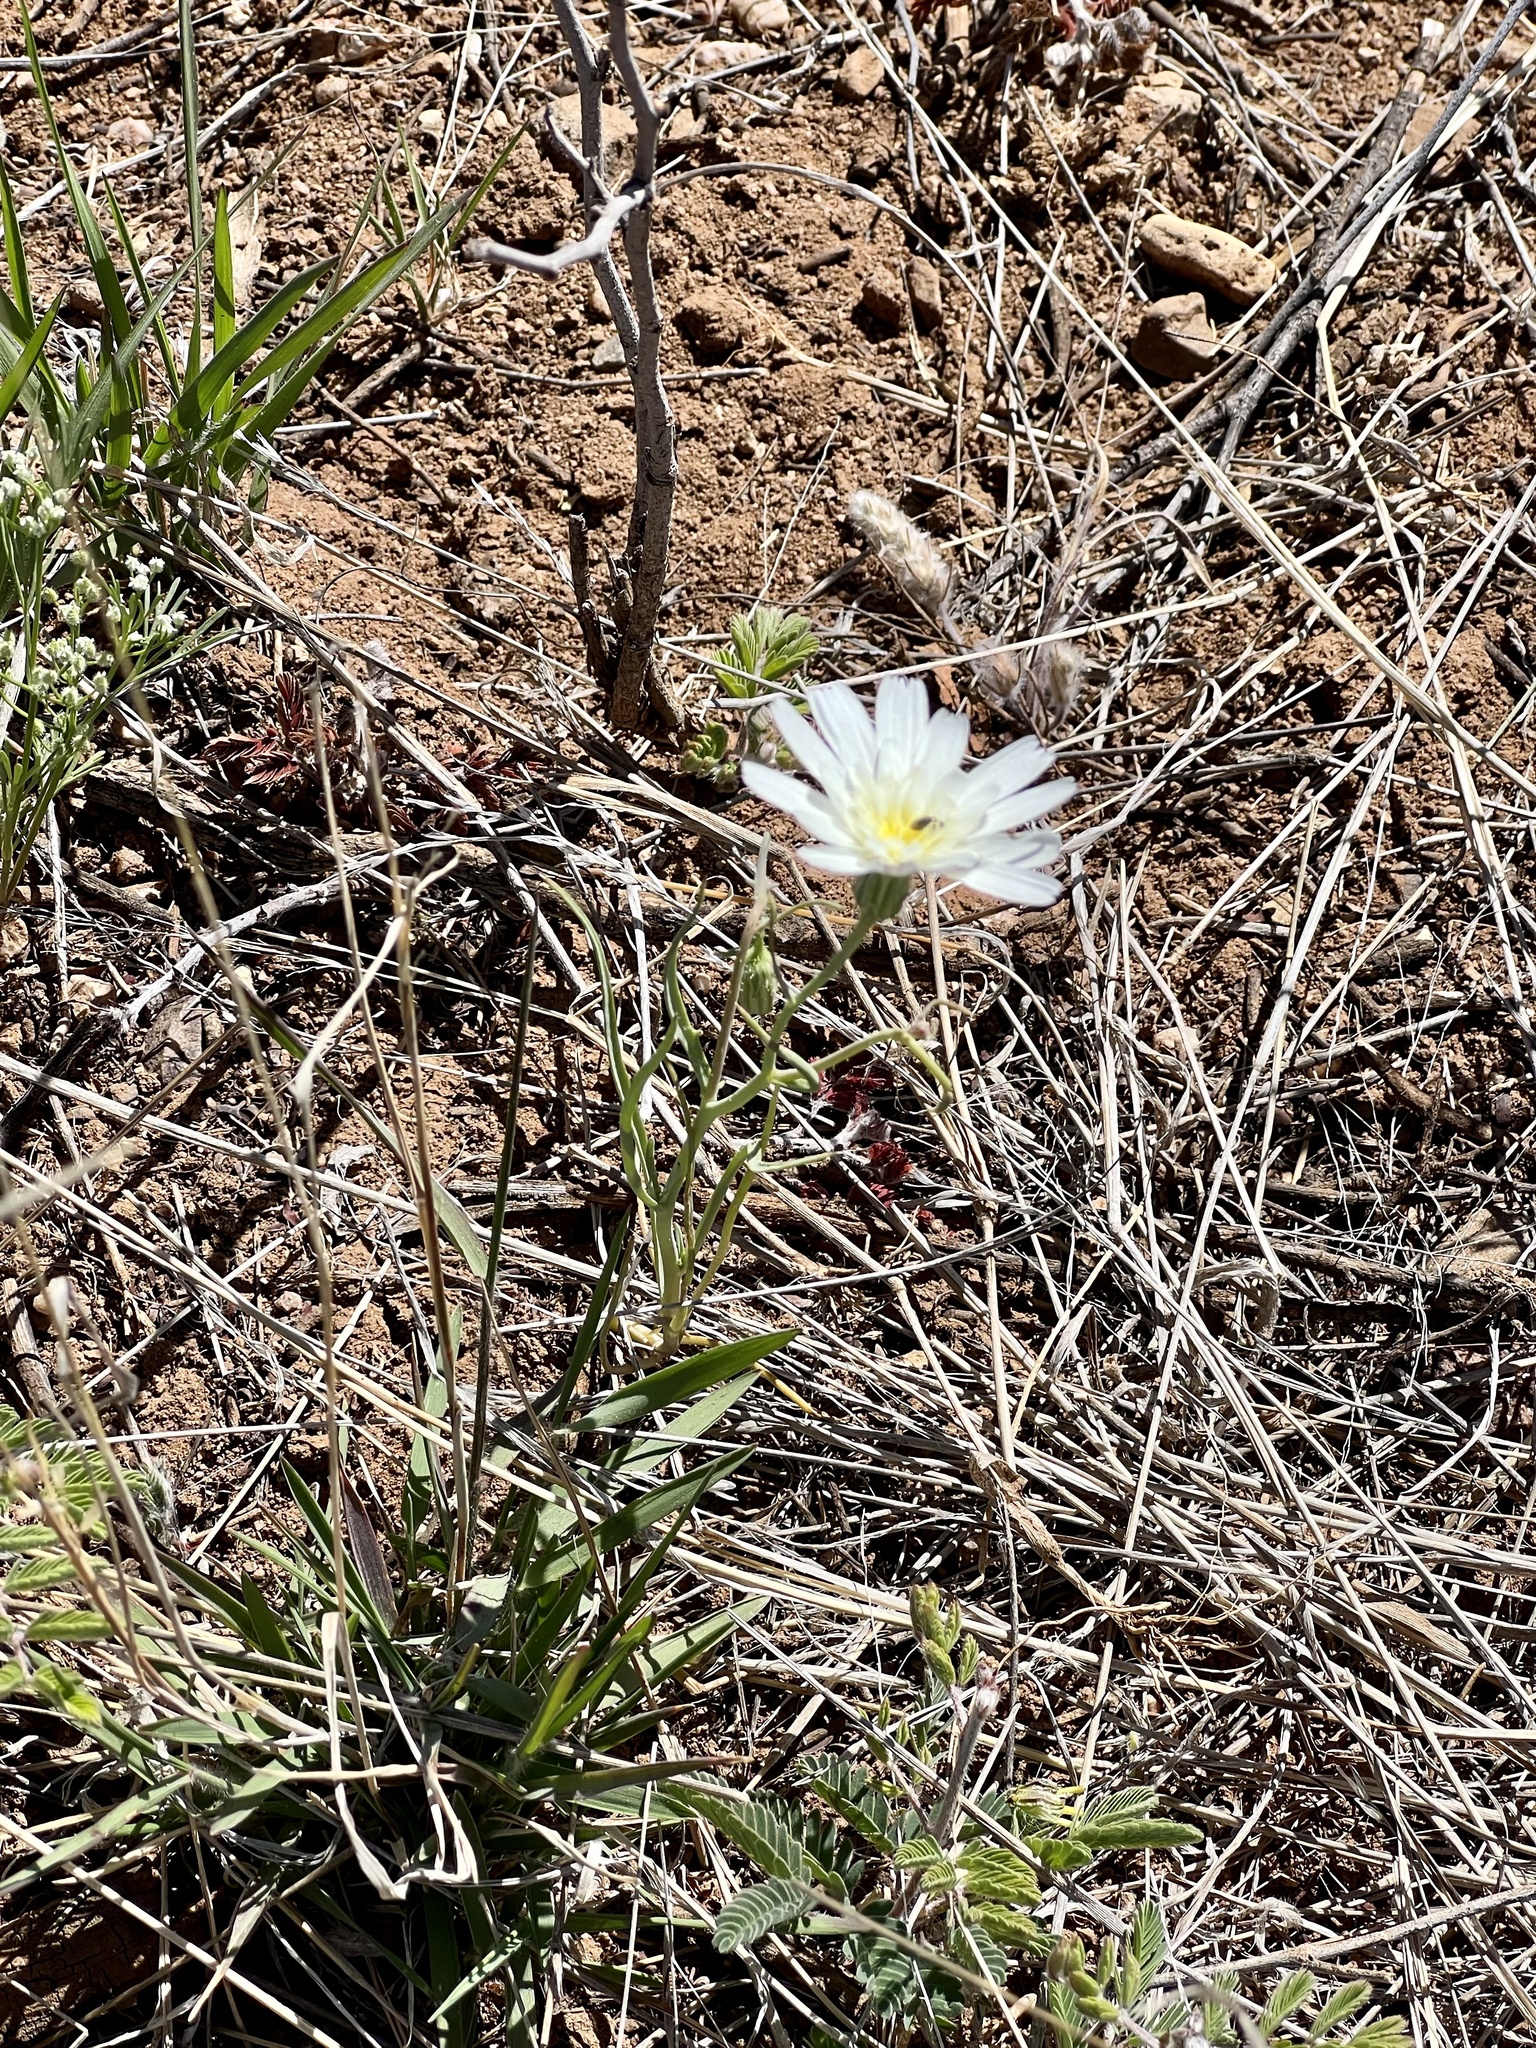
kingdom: Plantae
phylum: Tracheophyta
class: Magnoliopsida
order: Asterales
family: Asteraceae
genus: Calycoseris
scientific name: Calycoseris wrightii
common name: White tackstem
